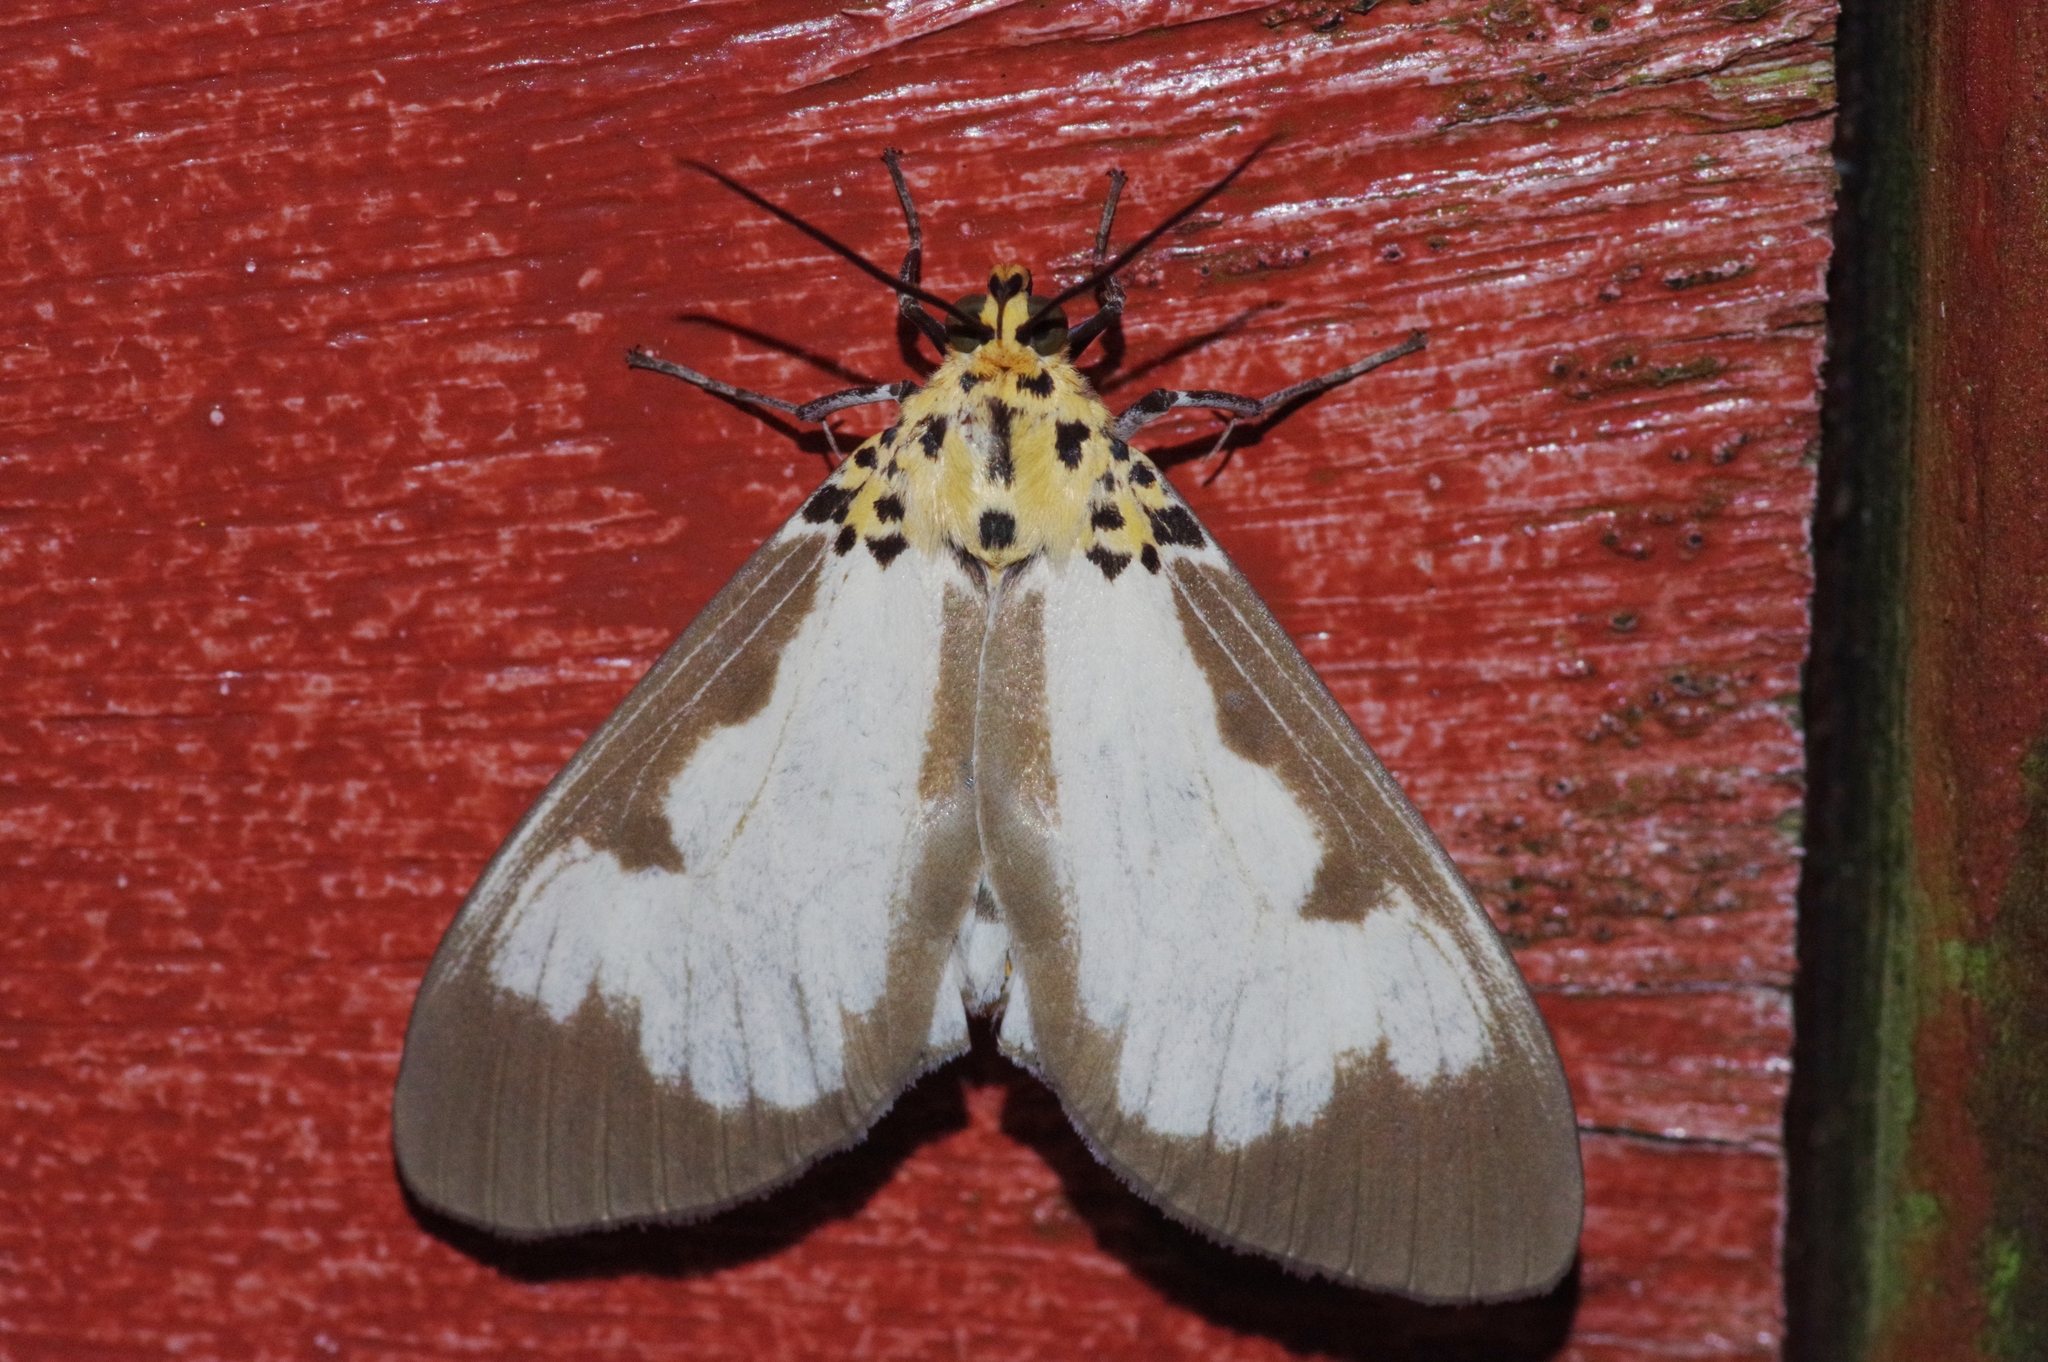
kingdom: Animalia
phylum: Arthropoda
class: Insecta
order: Lepidoptera
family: Erebidae
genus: Asota
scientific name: Asota plana
